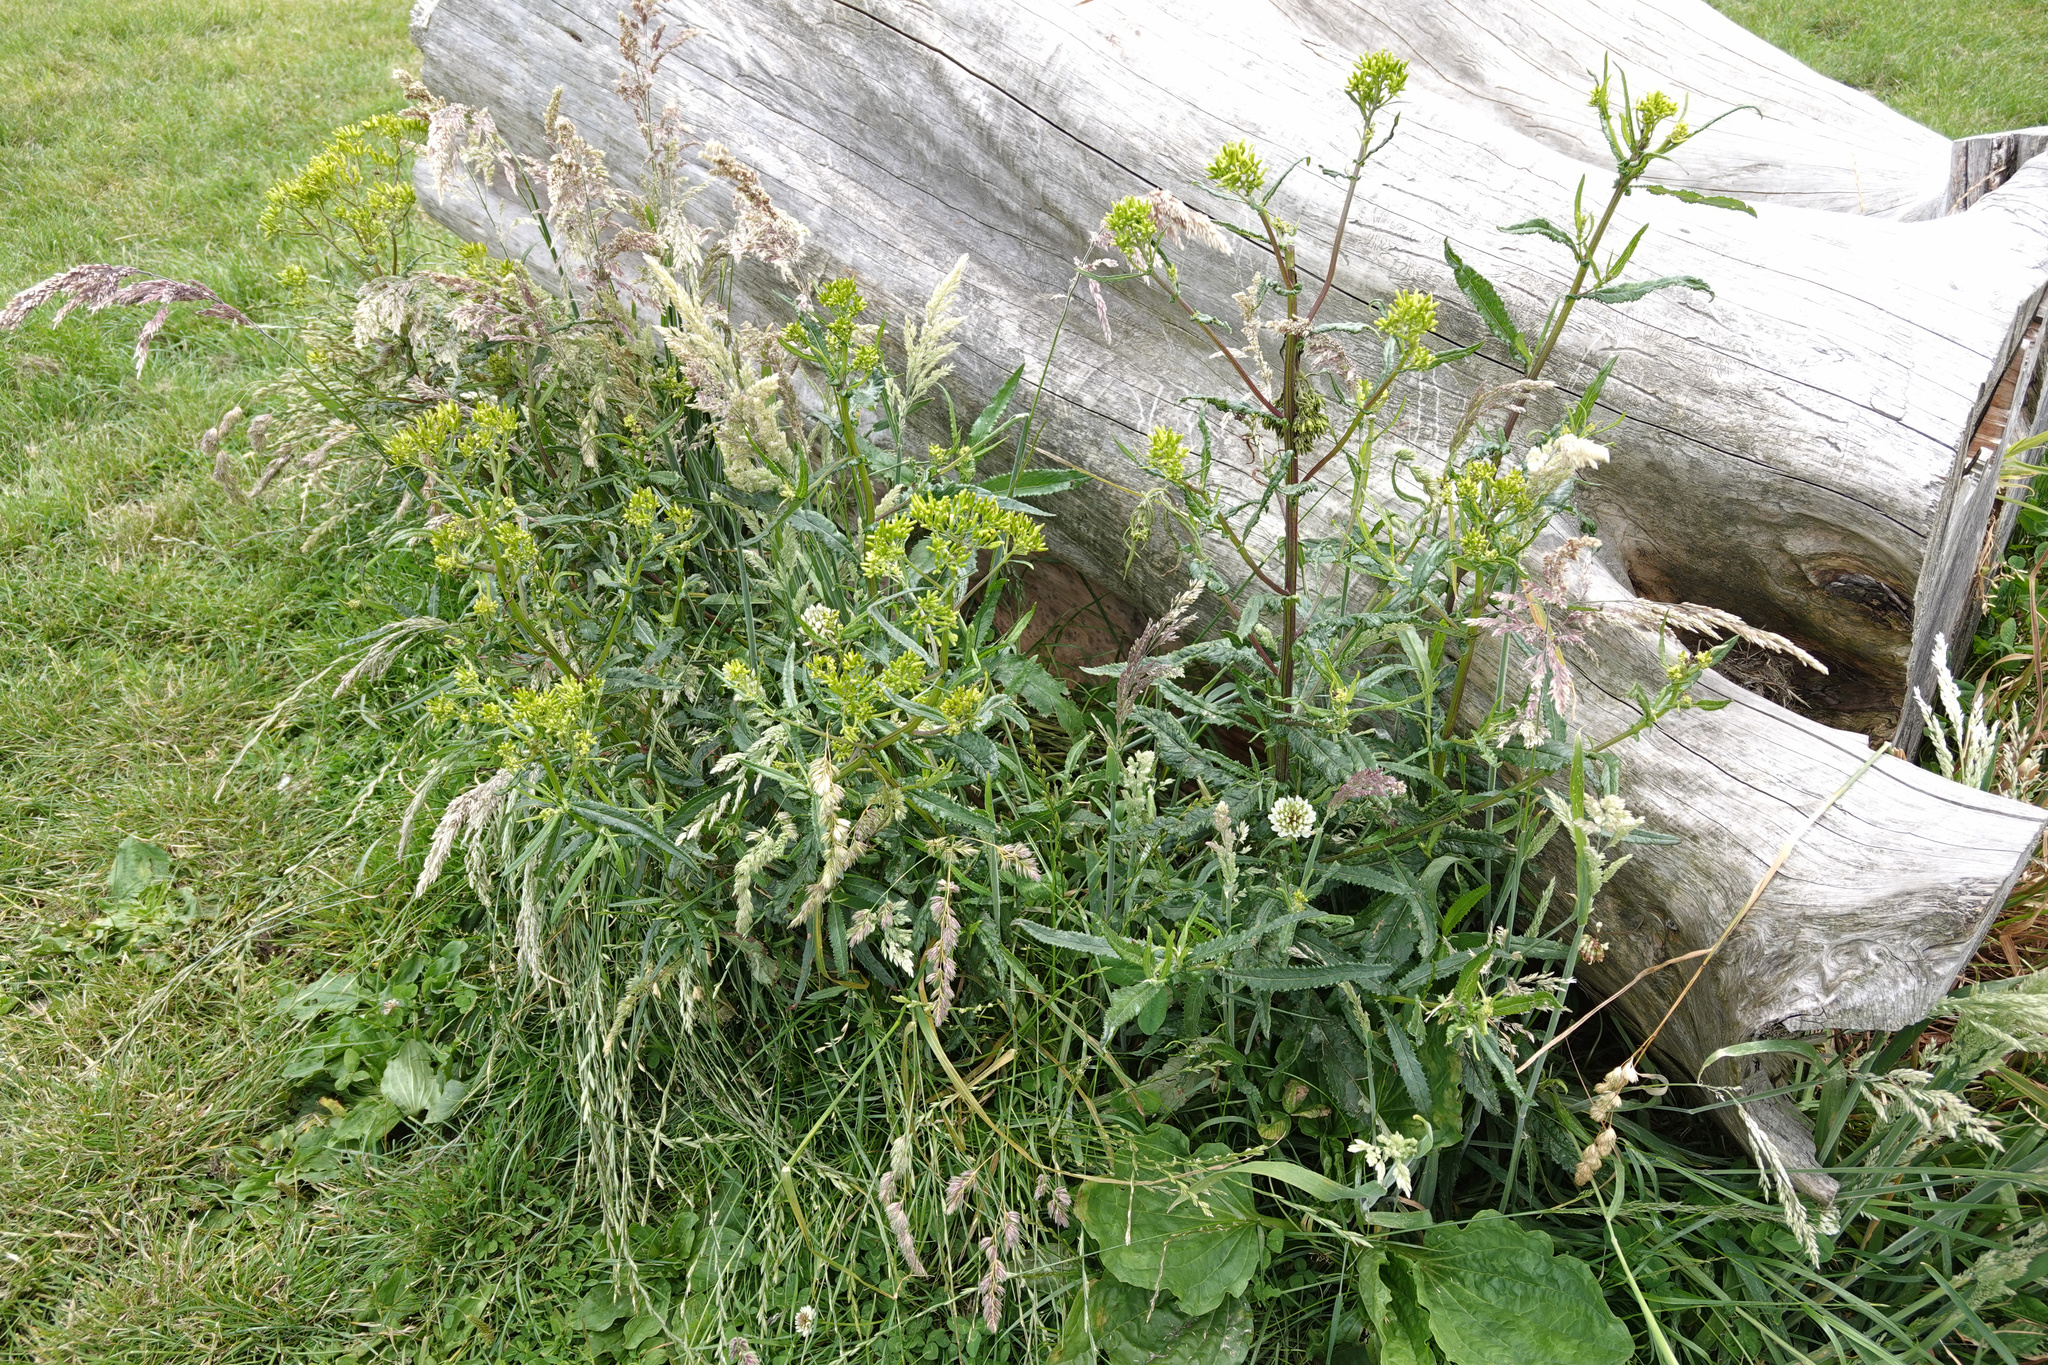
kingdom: Plantae
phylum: Tracheophyta
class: Magnoliopsida
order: Asterales
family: Asteraceae
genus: Senecio
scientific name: Senecio minimus
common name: Toothed fireweed
